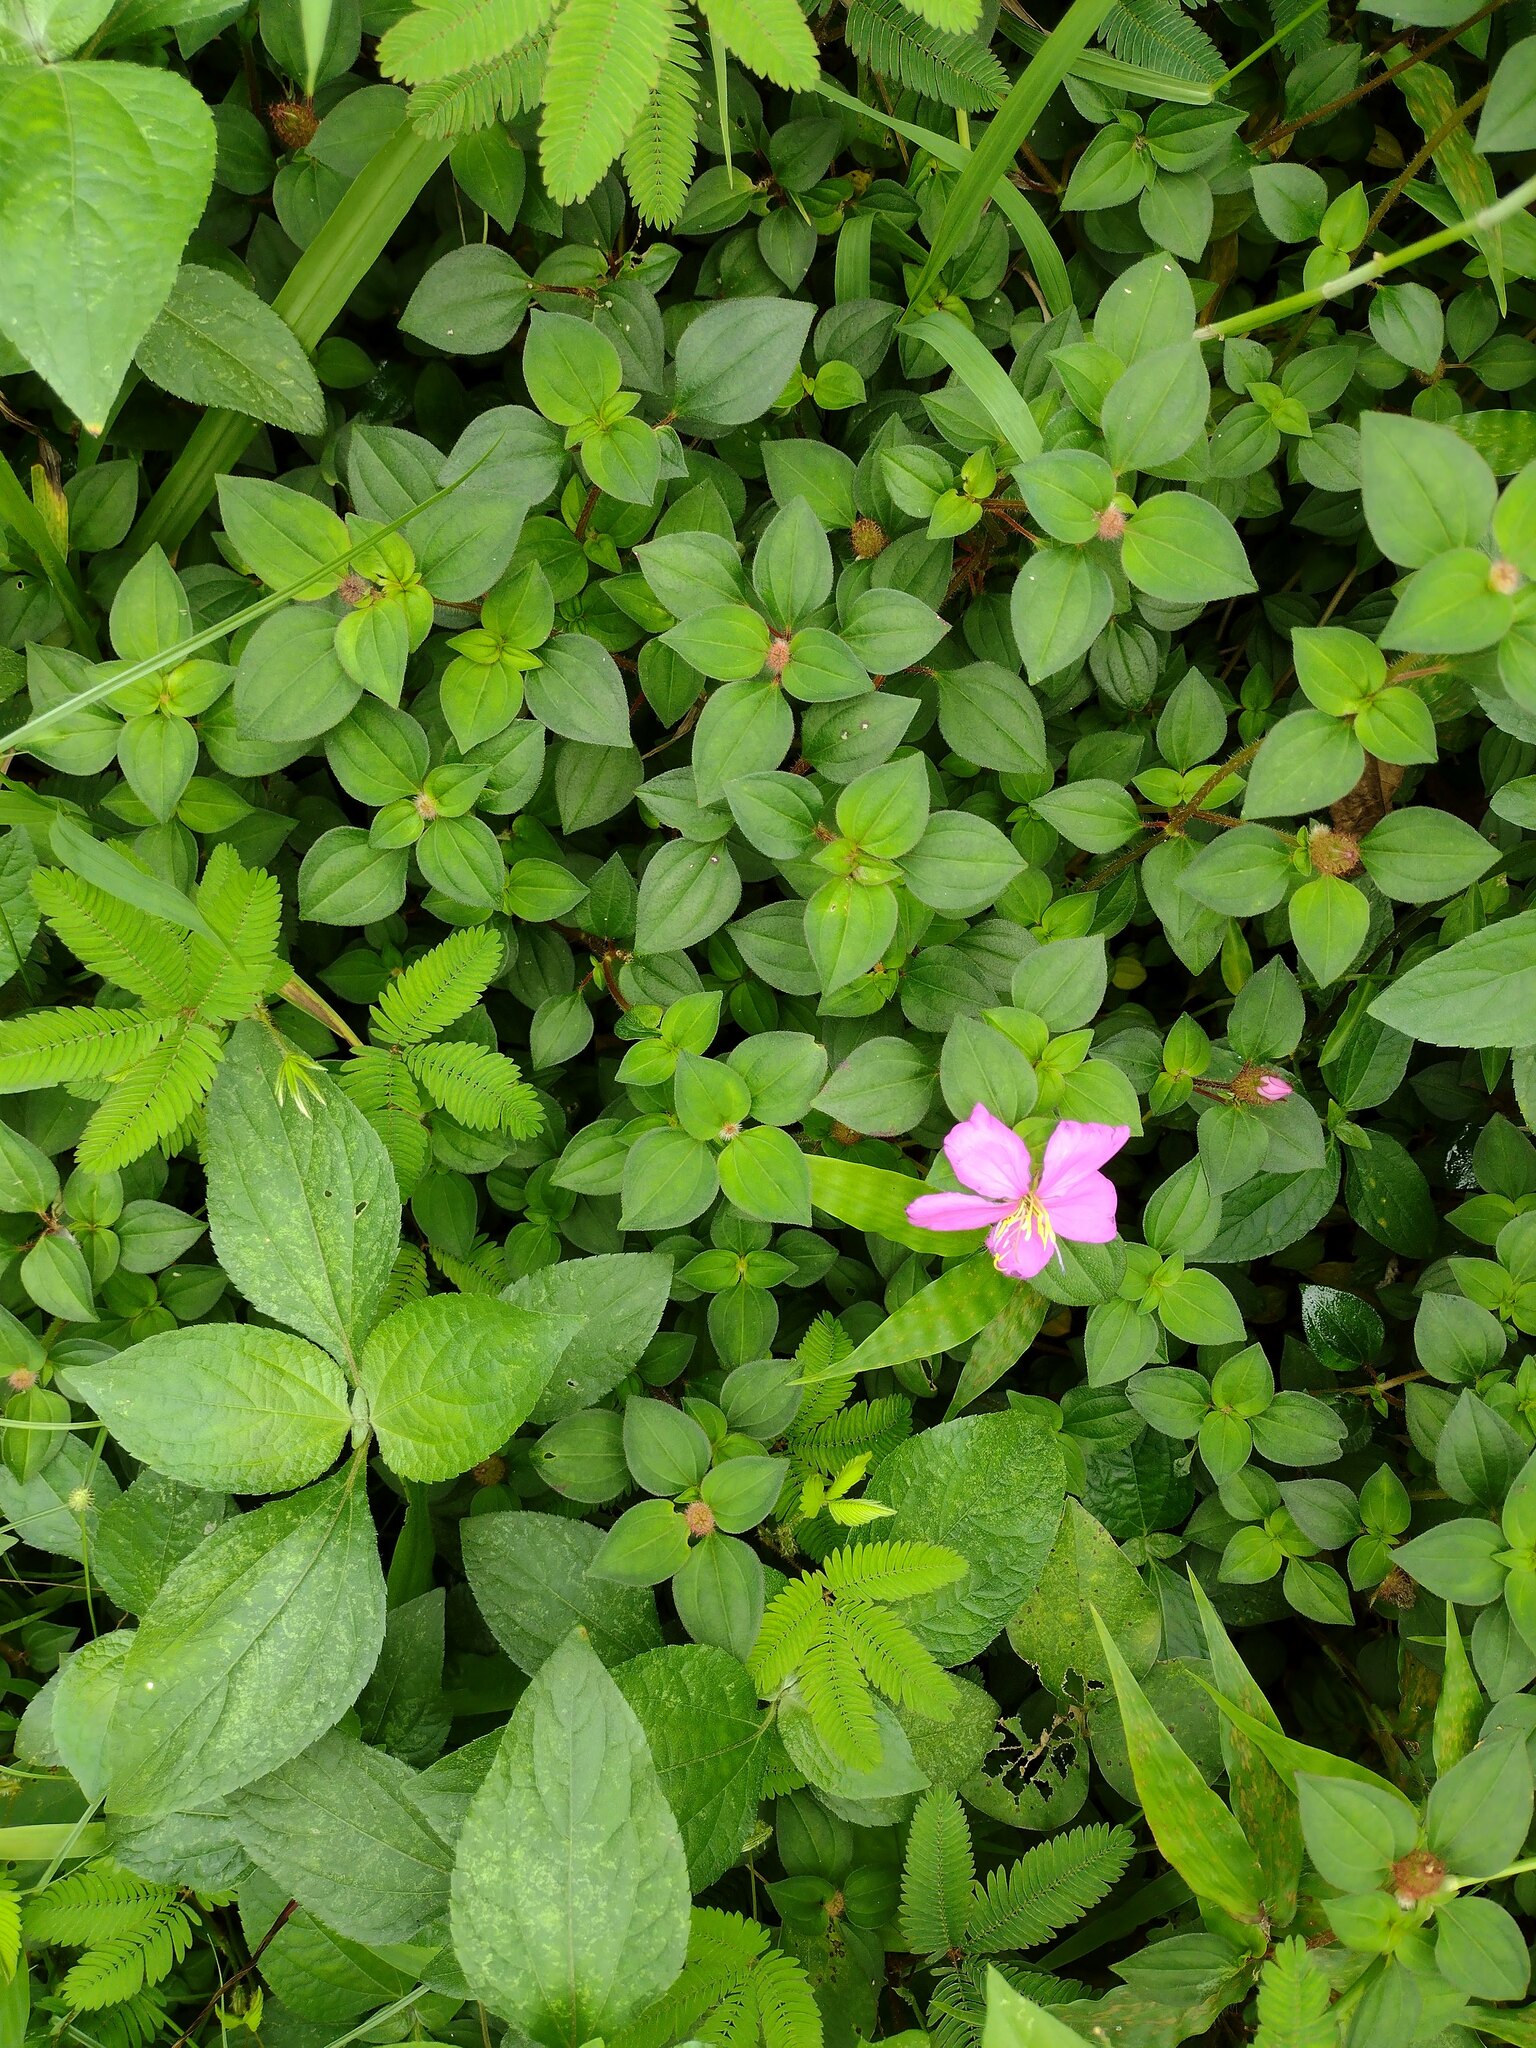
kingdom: Plantae
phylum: Tracheophyta
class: Magnoliopsida
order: Myrtales
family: Melastomataceae
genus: Heterotis
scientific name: Heterotis rotundifolia
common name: Pinklady
